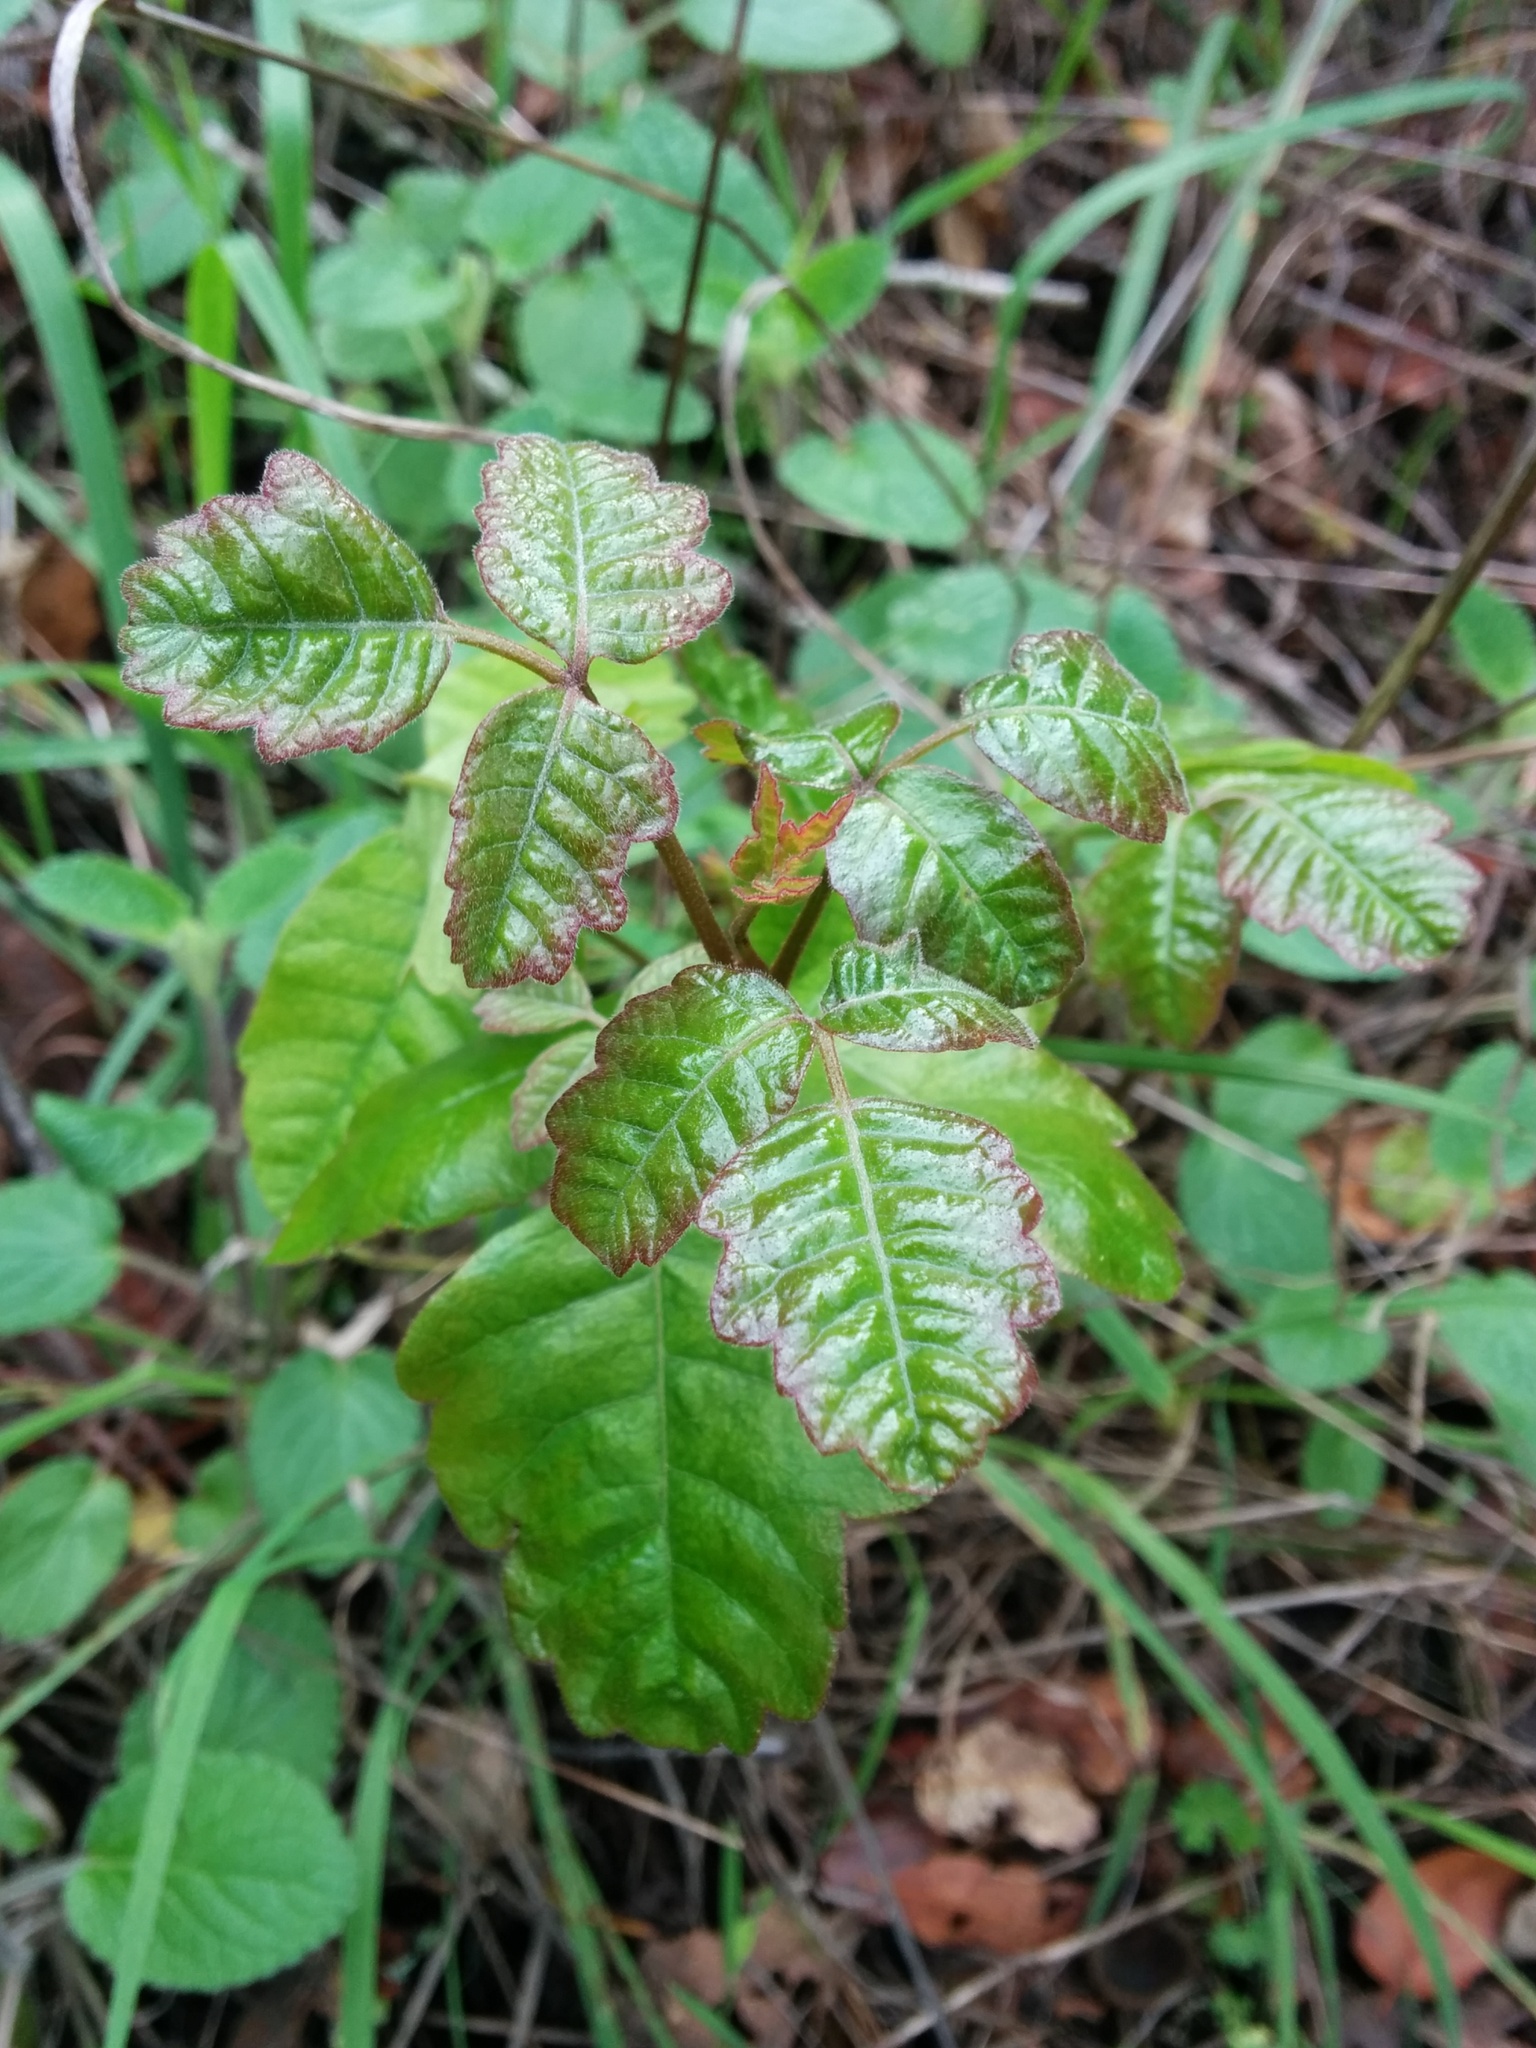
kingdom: Plantae
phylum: Tracheophyta
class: Magnoliopsida
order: Sapindales
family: Anacardiaceae
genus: Toxicodendron
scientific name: Toxicodendron diversilobum
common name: Pacific poison-oak
